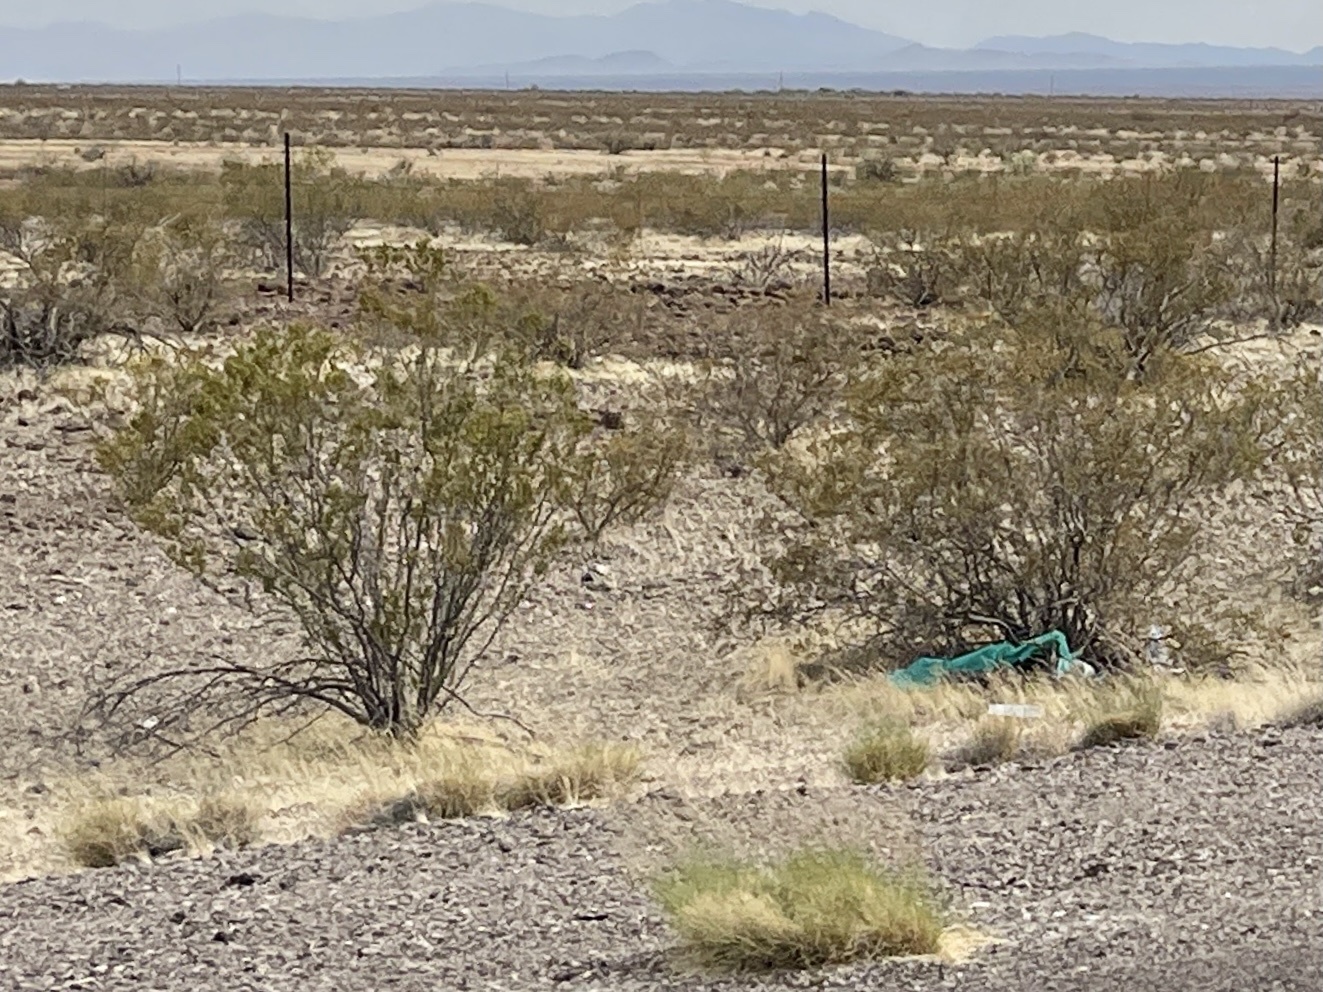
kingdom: Plantae
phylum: Tracheophyta
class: Magnoliopsida
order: Zygophyllales
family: Zygophyllaceae
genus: Larrea
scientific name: Larrea tridentata
